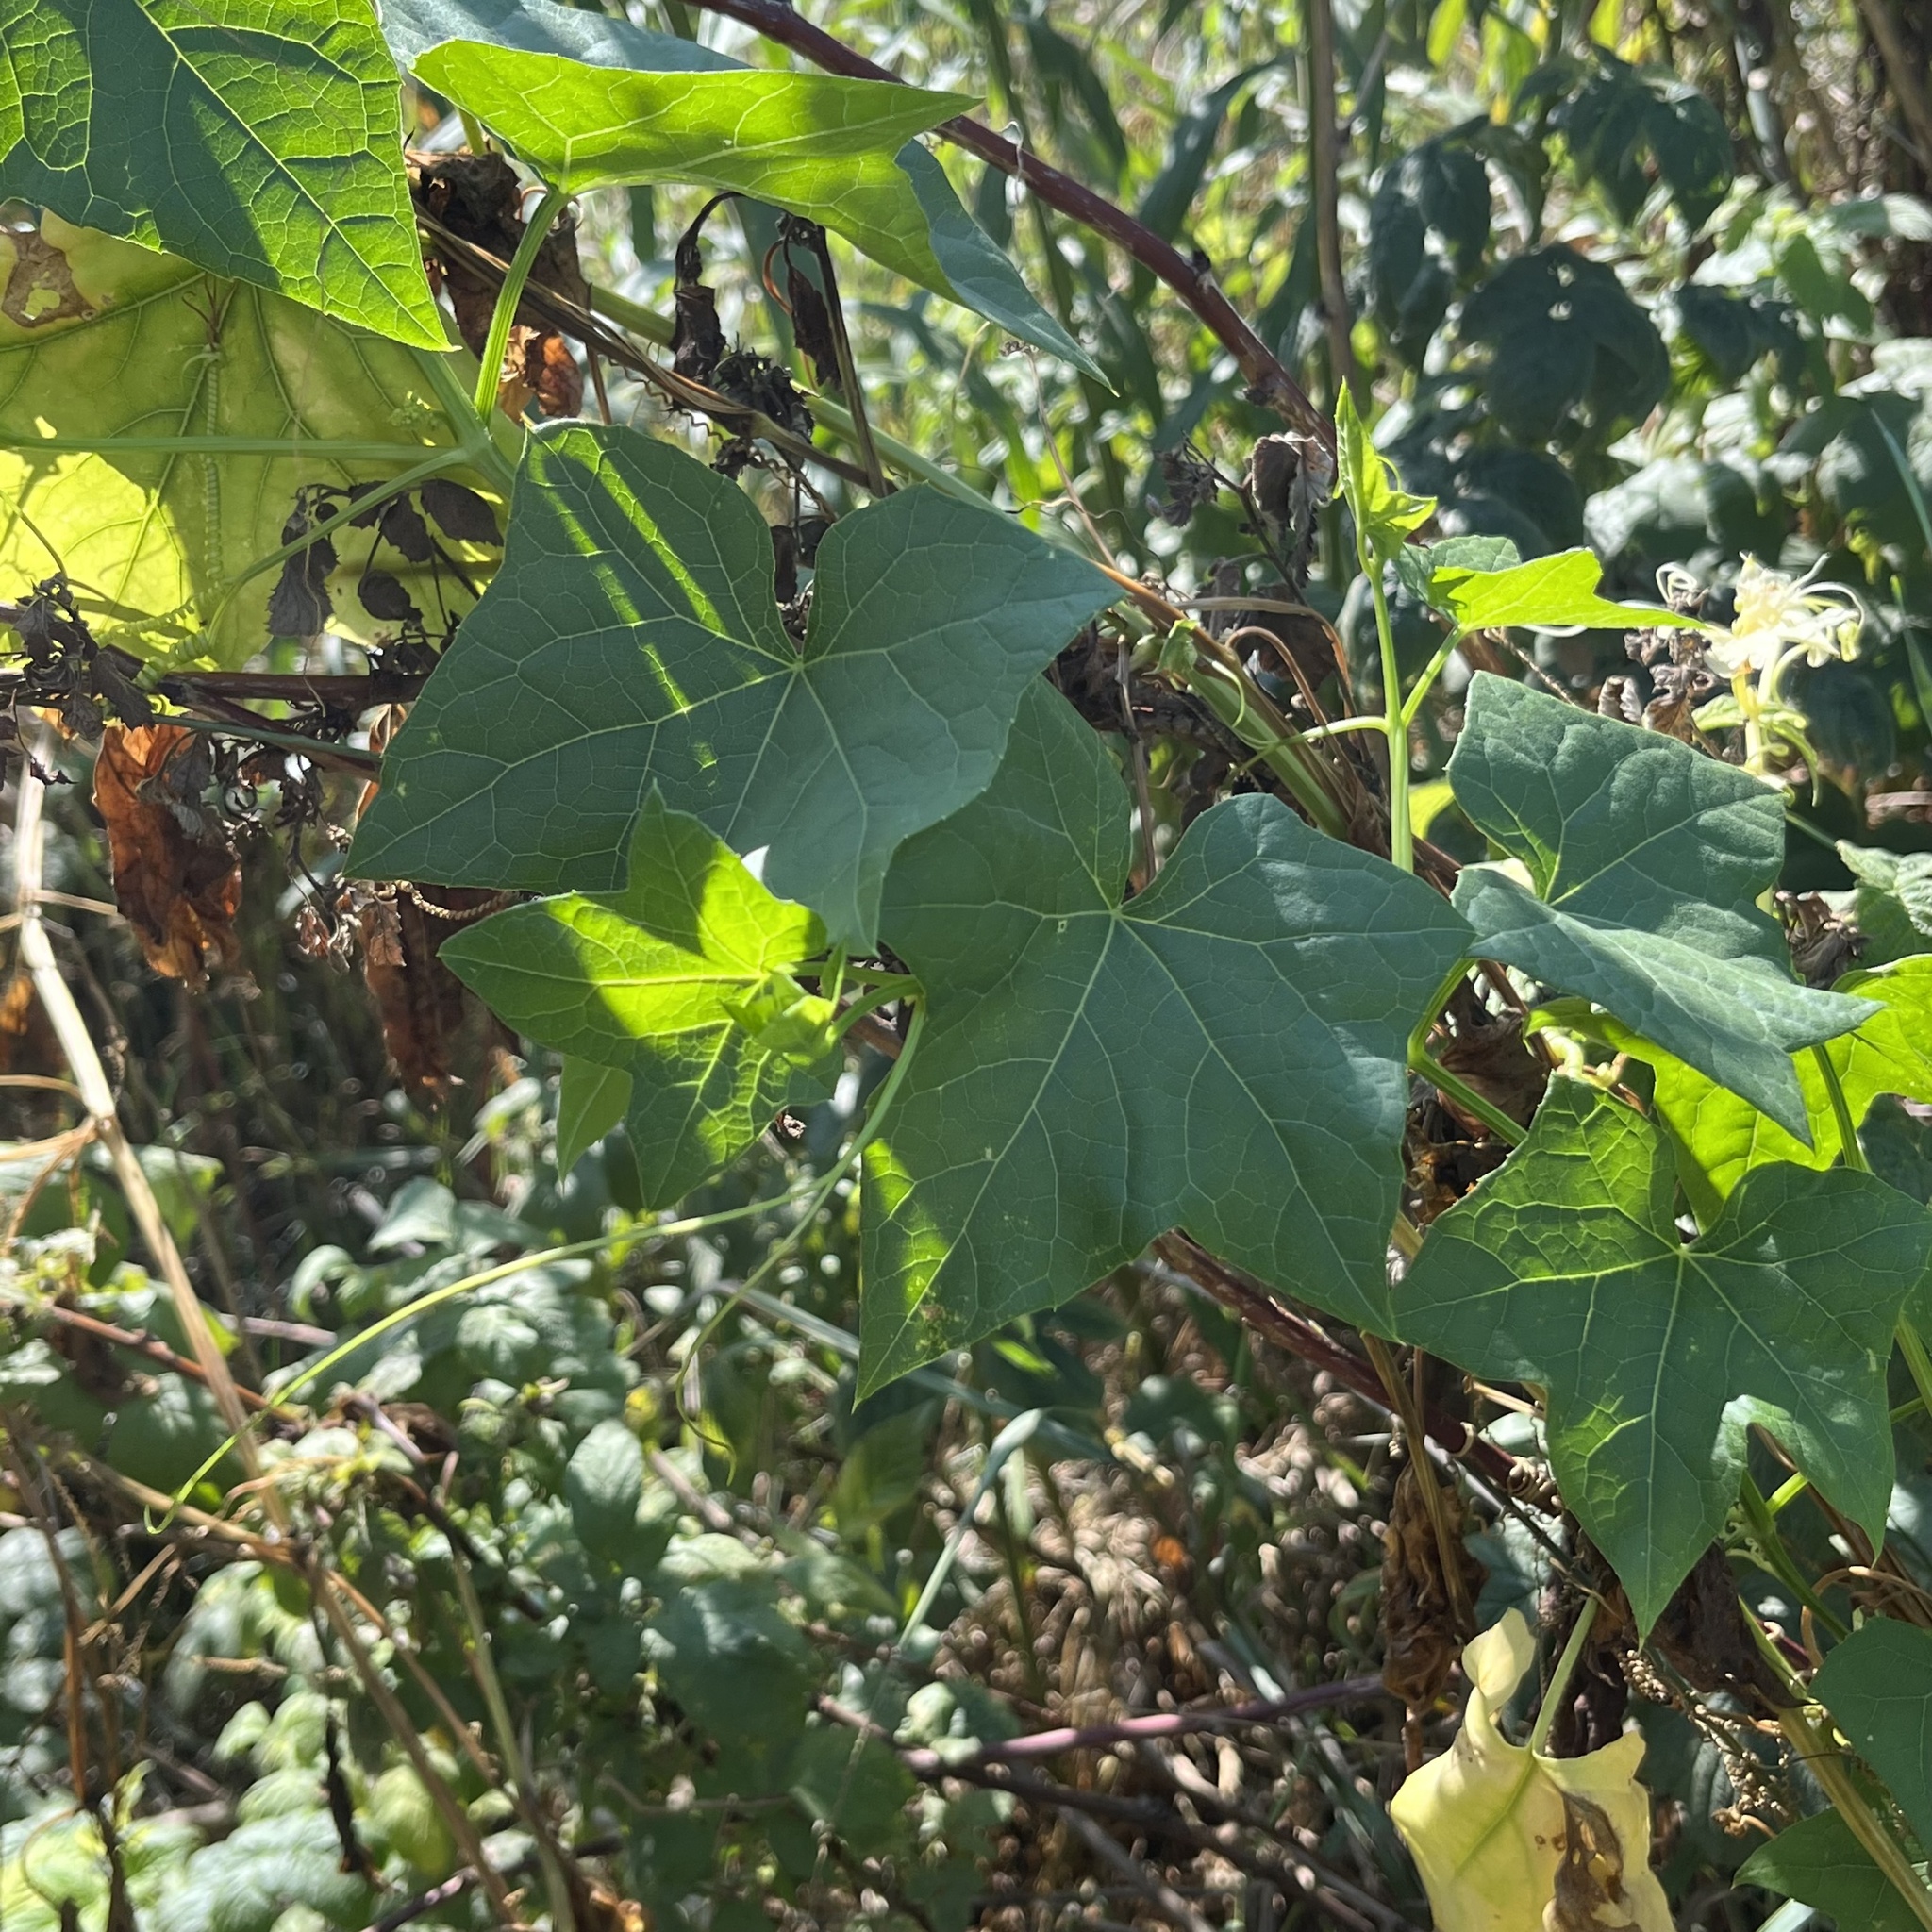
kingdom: Plantae
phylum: Tracheophyta
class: Magnoliopsida
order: Cucurbitales
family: Cucurbitaceae
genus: Echinocystis
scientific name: Echinocystis lobata
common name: Wild cucumber
